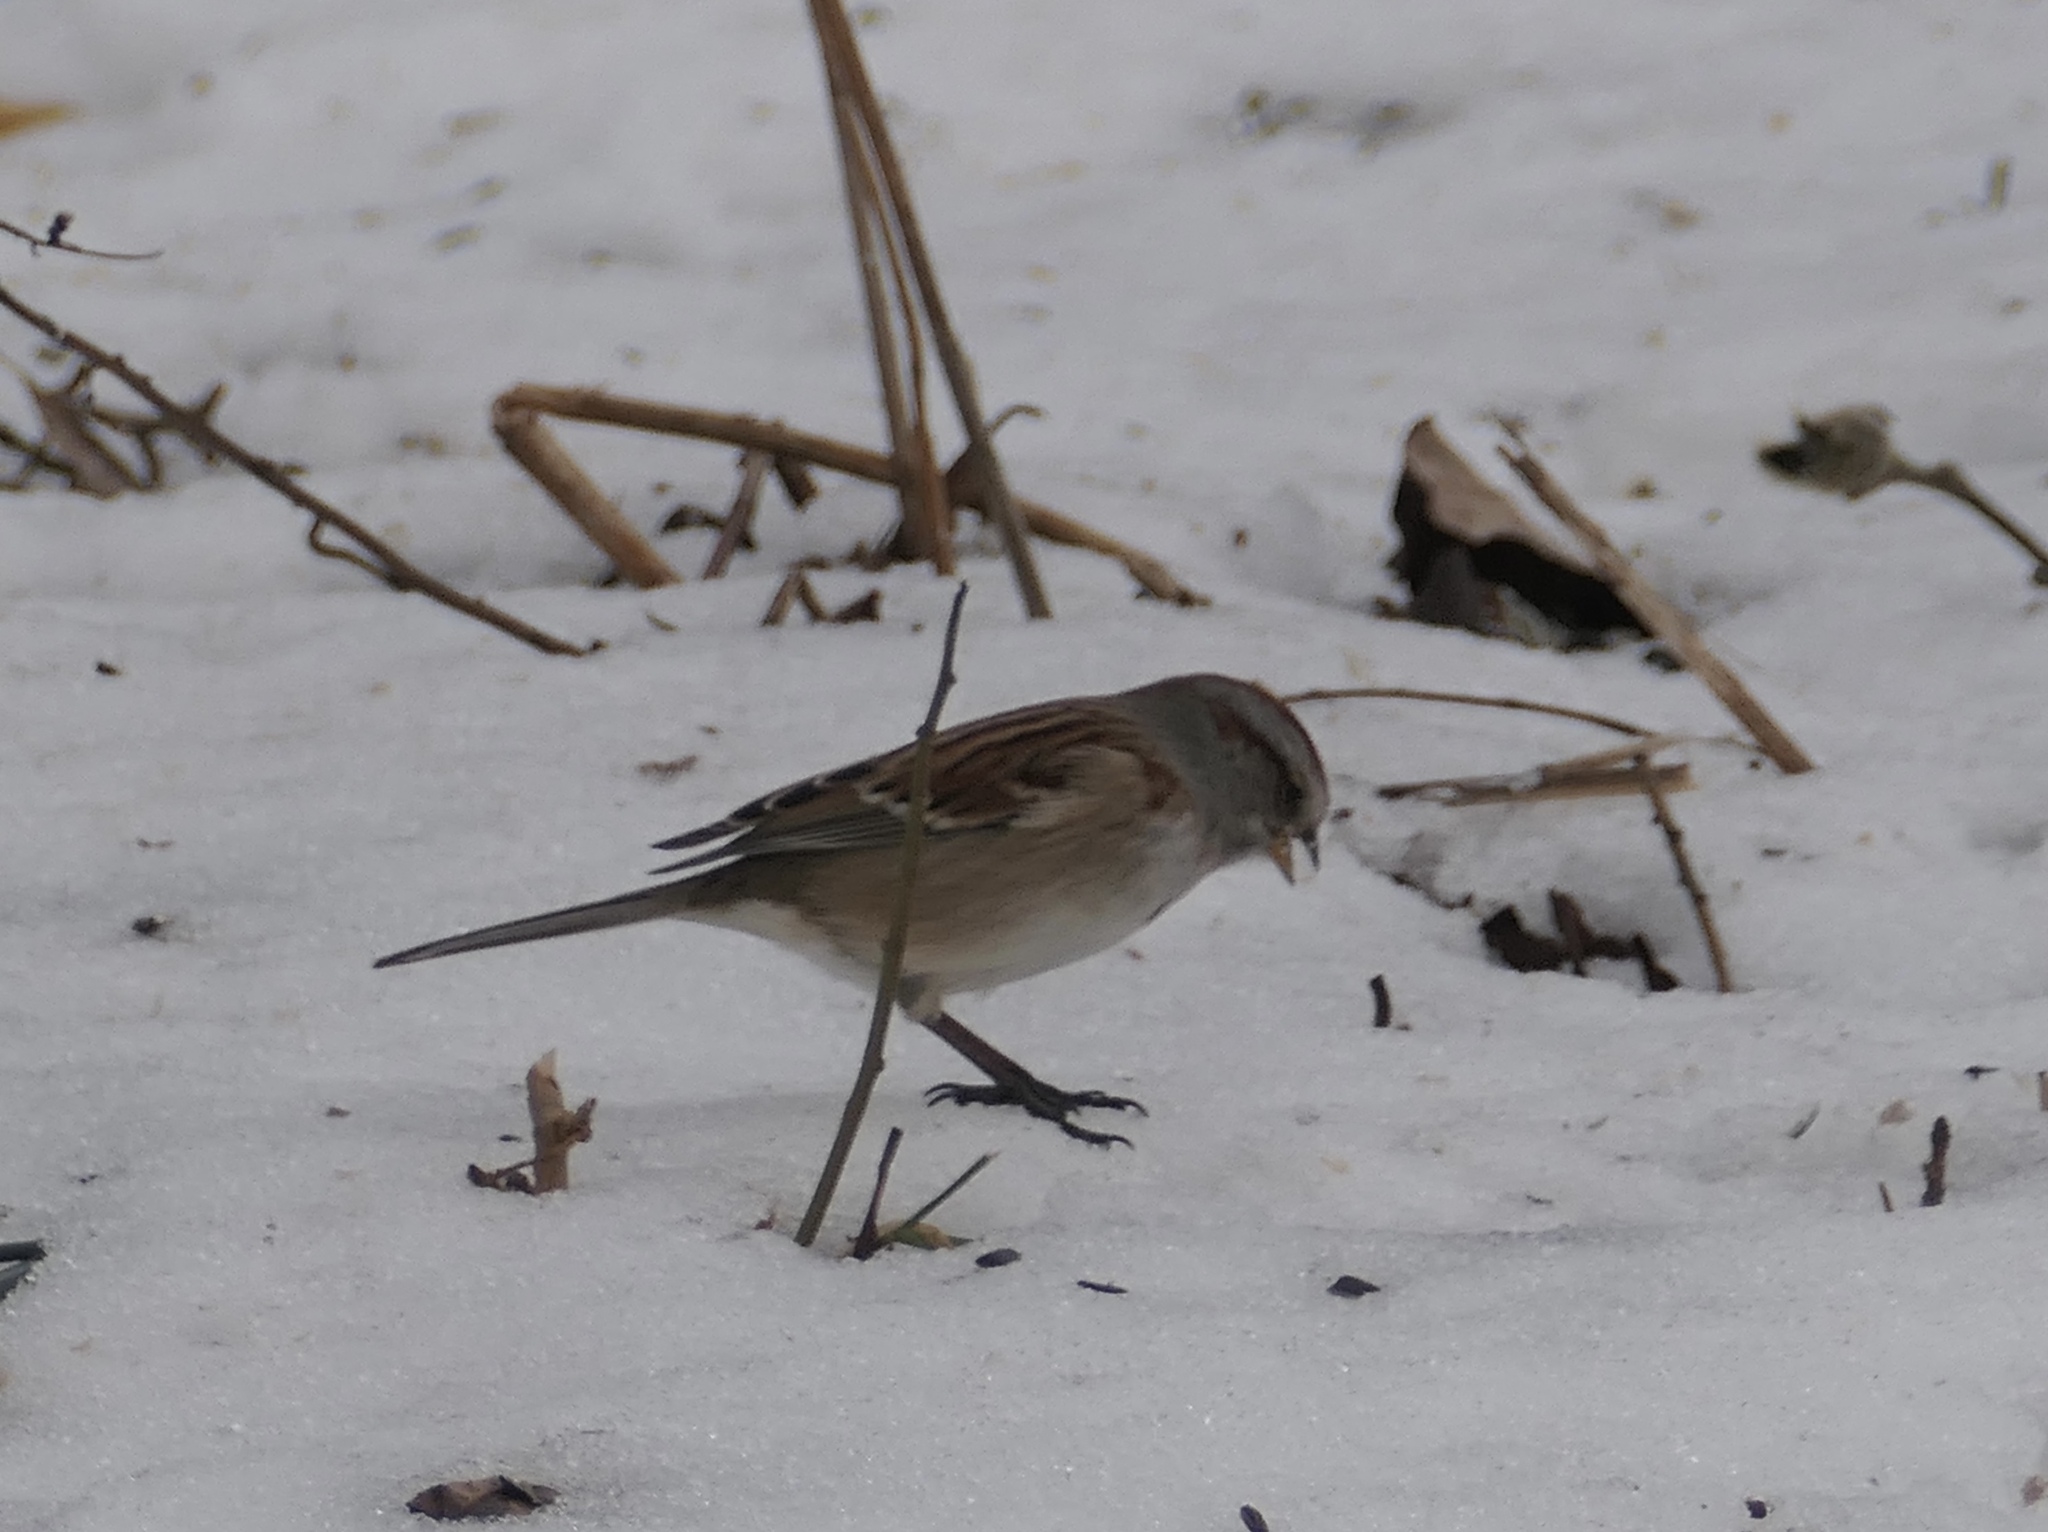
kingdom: Animalia
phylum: Chordata
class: Aves
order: Passeriformes
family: Passerellidae
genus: Spizelloides
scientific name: Spizelloides arborea
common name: American tree sparrow
